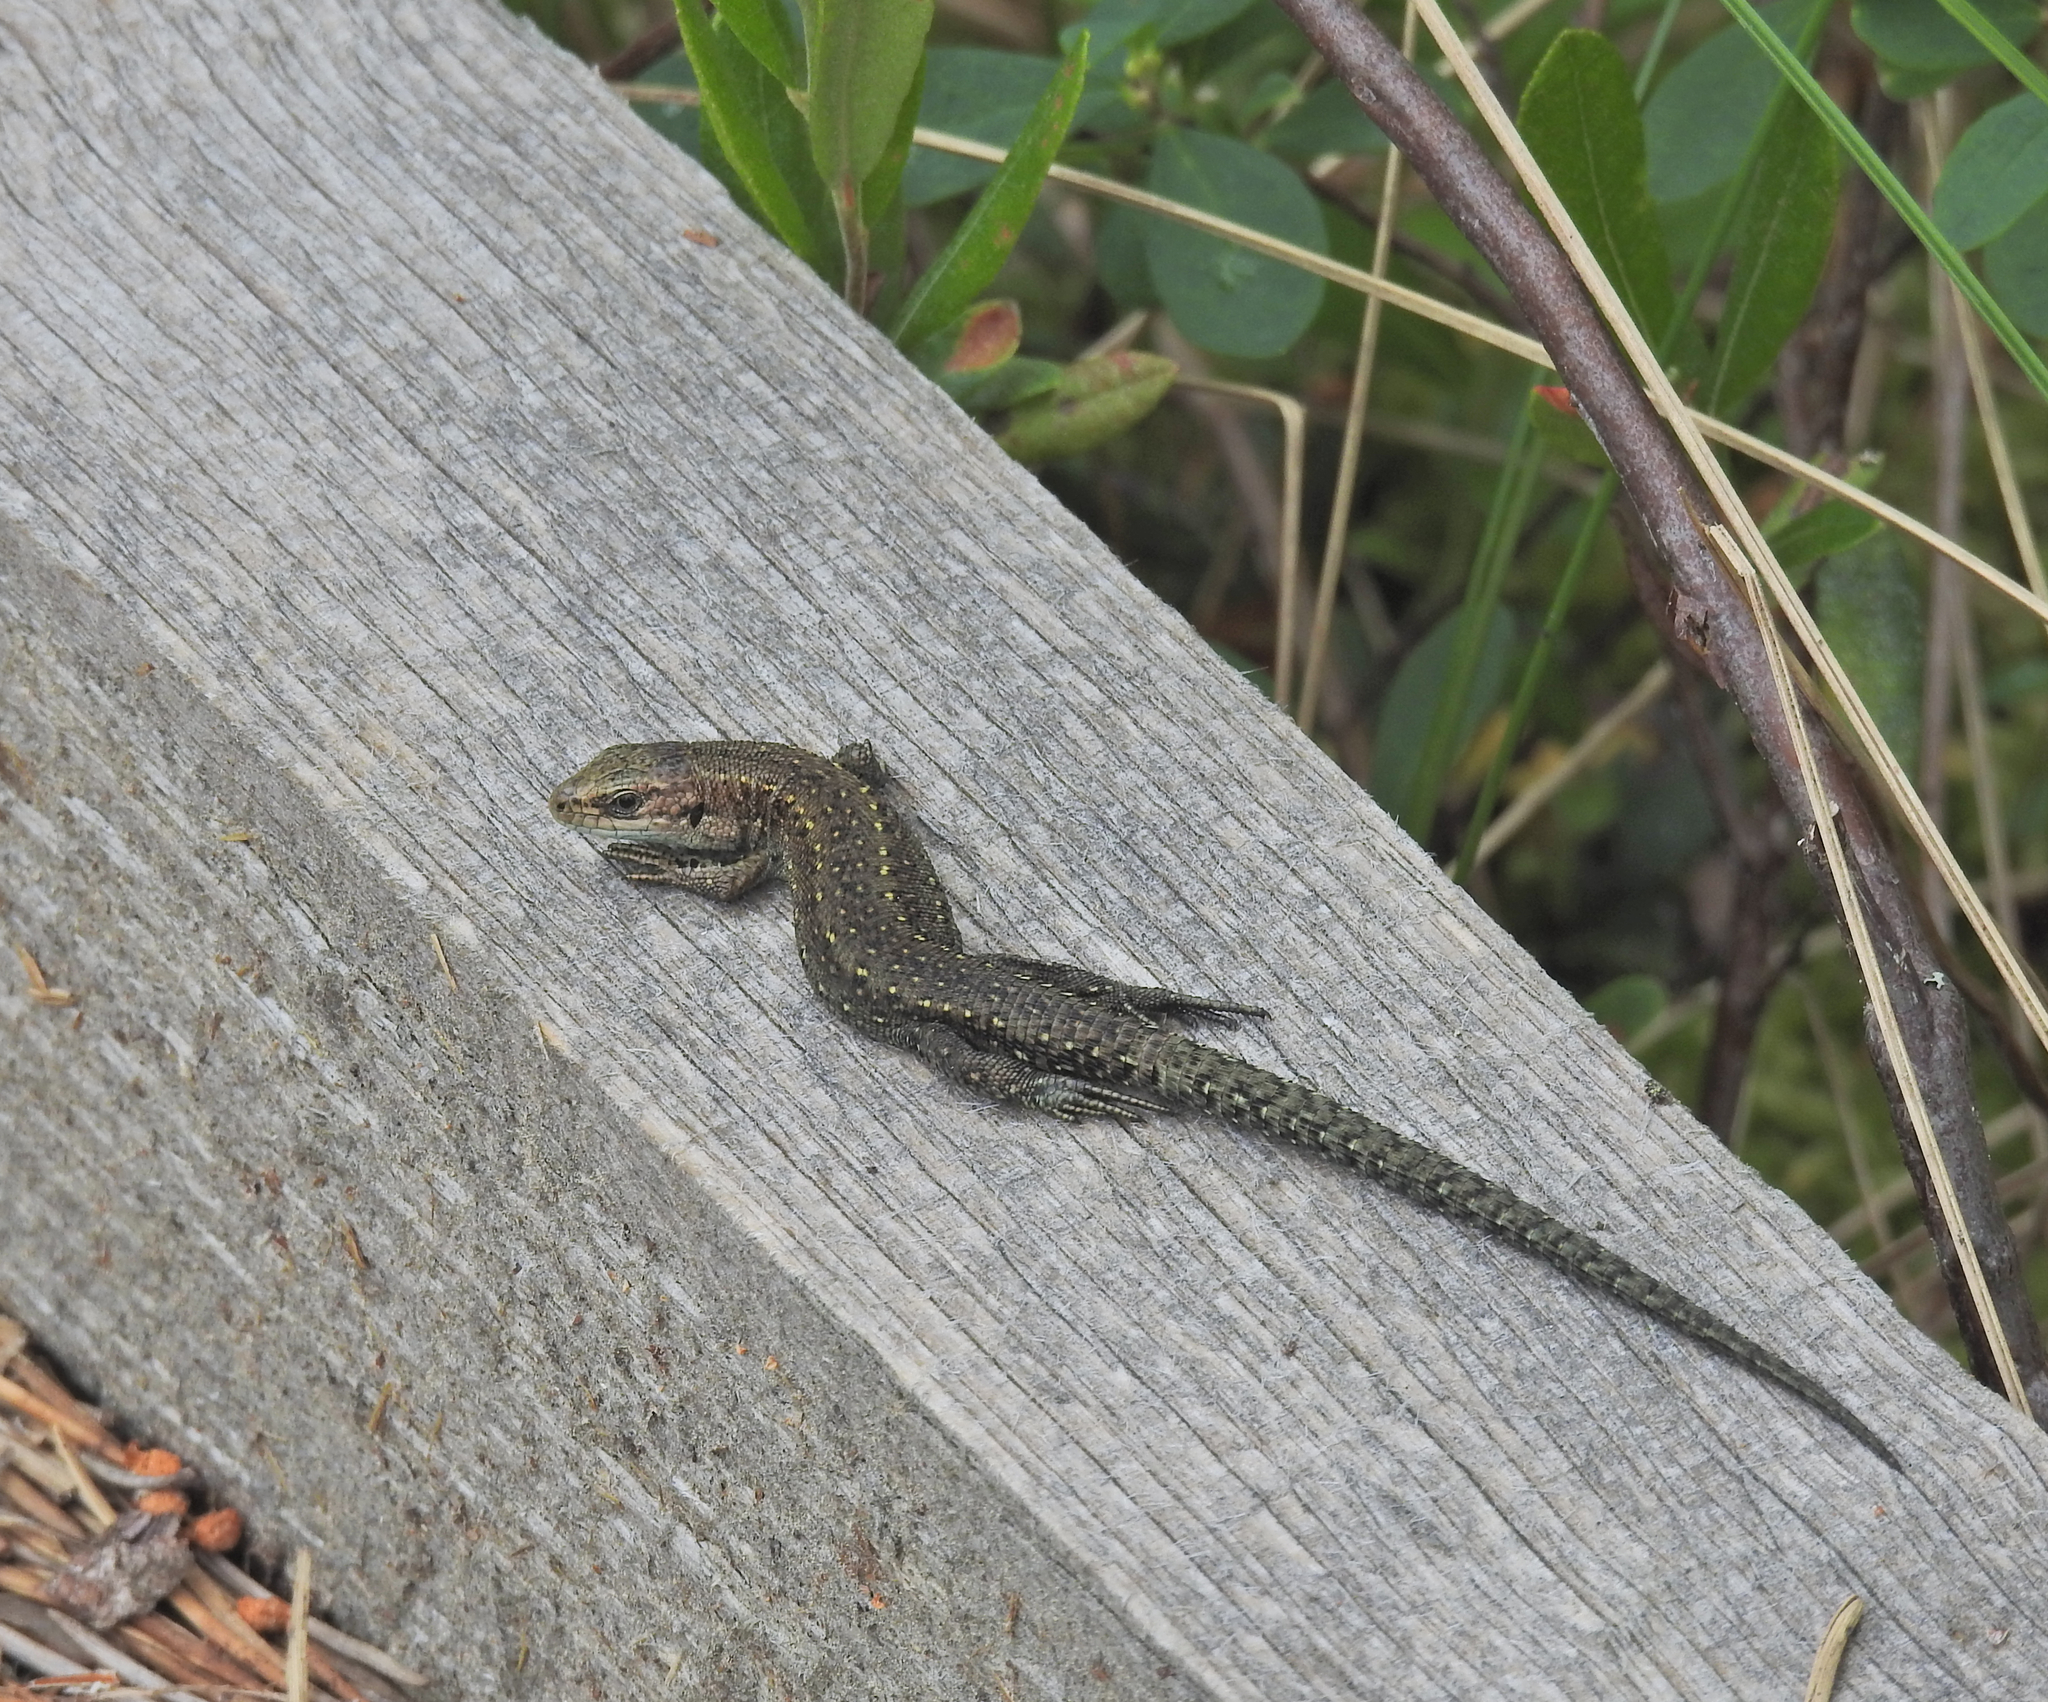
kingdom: Animalia
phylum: Chordata
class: Squamata
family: Lacertidae
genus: Zootoca
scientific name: Zootoca vivipara
